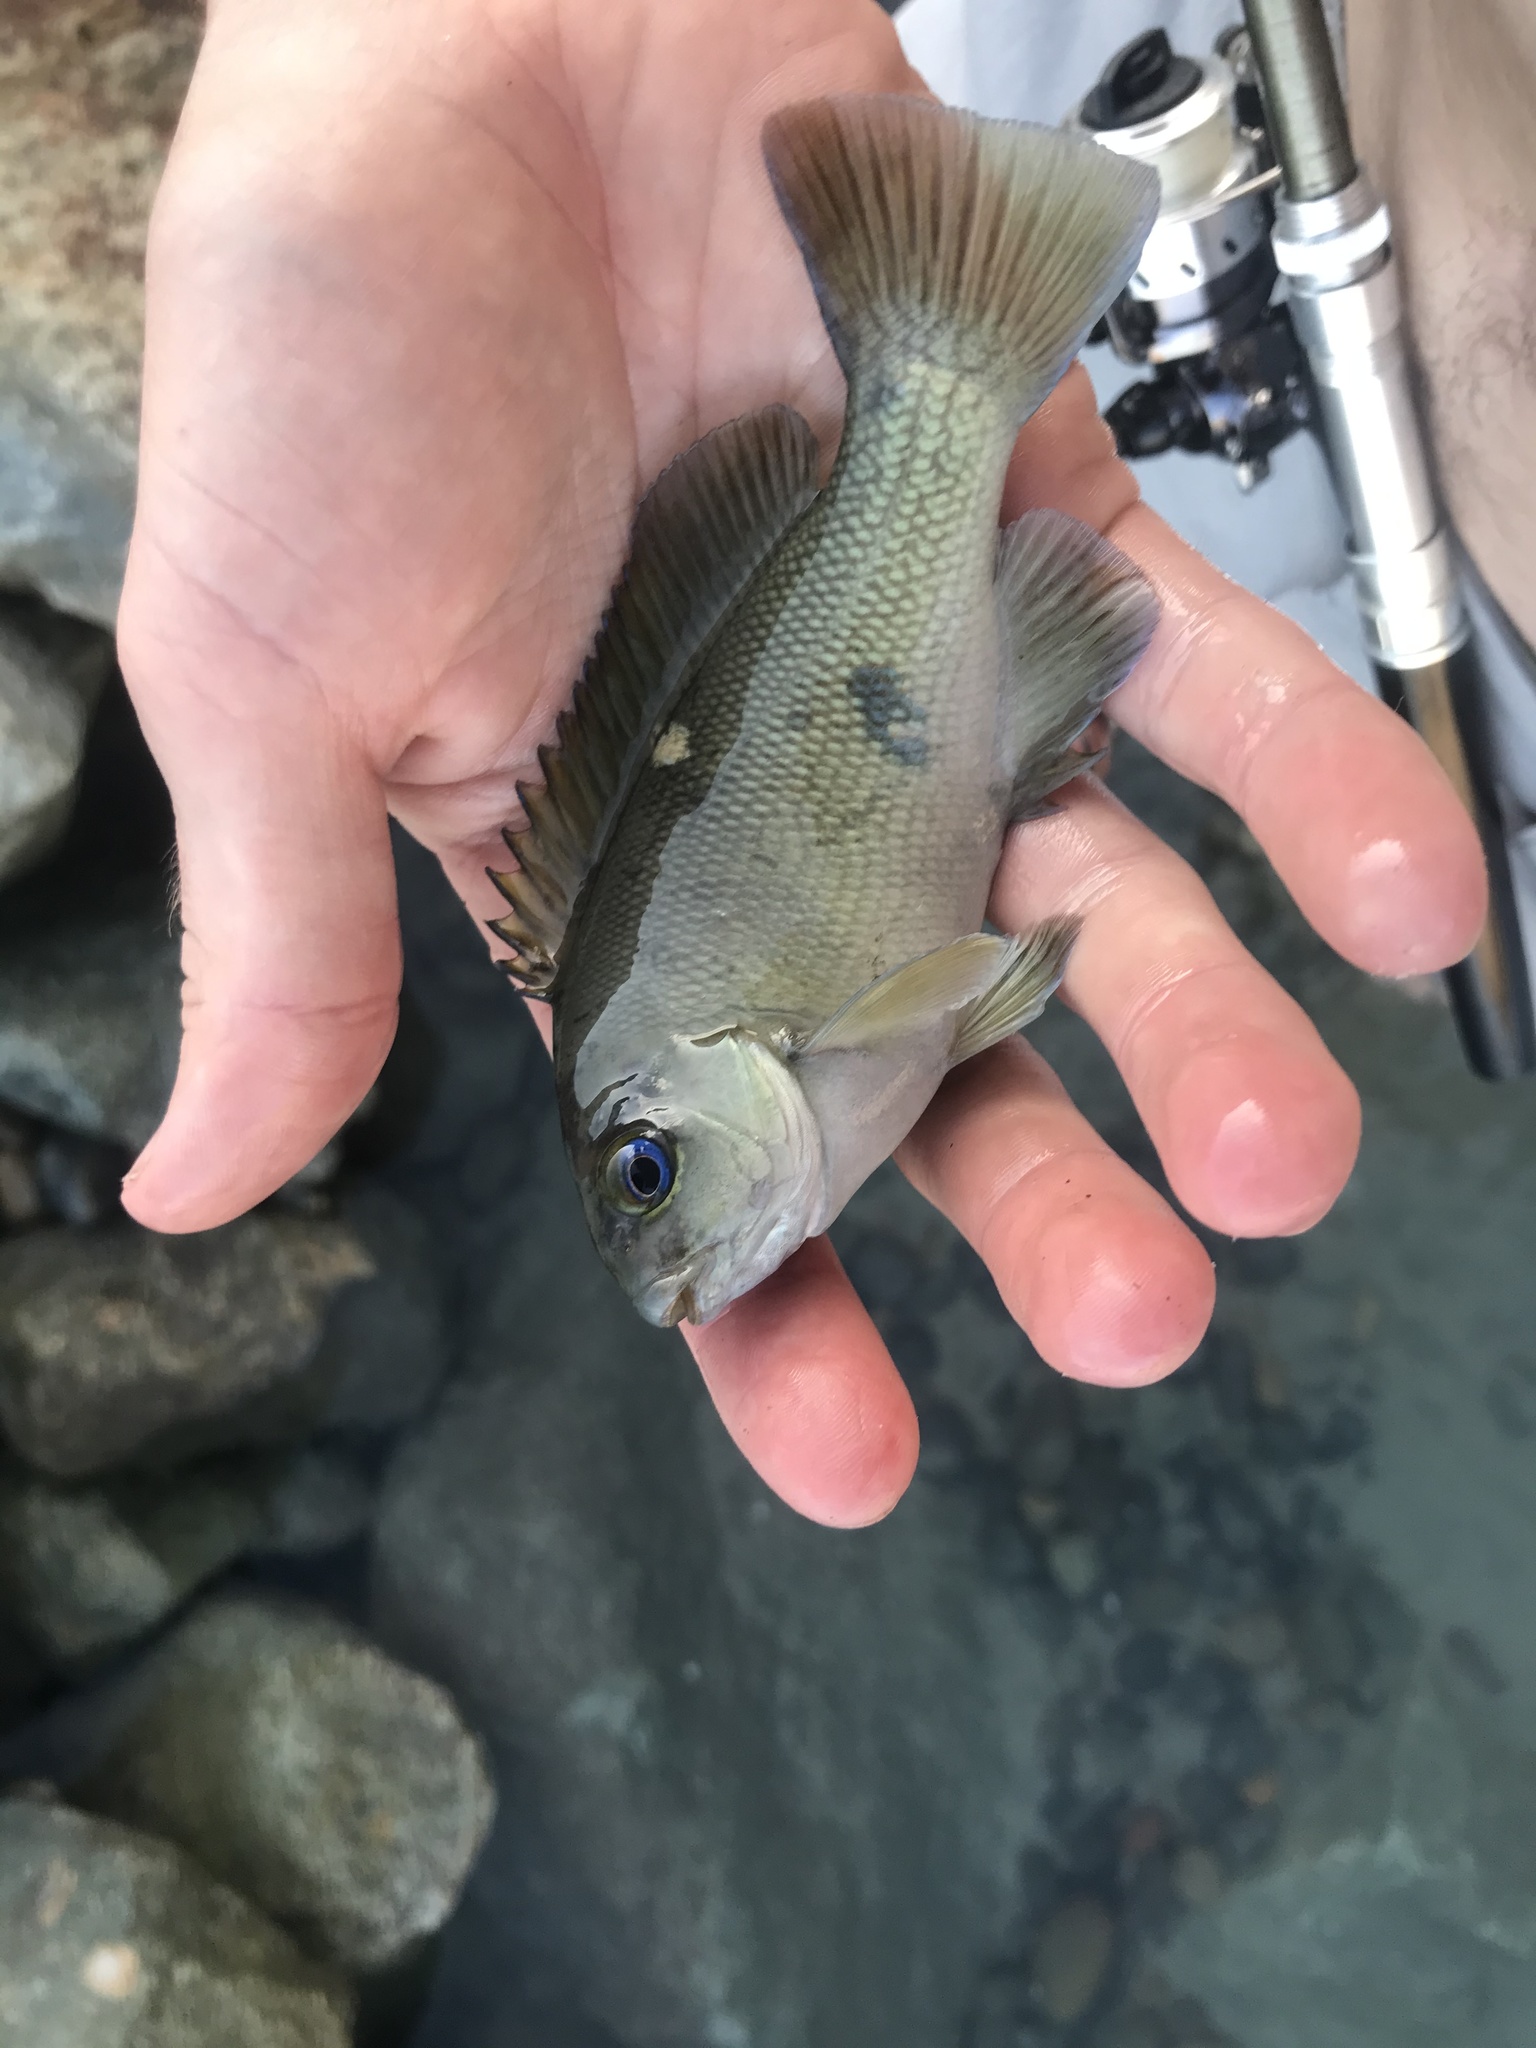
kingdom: Animalia
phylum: Chordata
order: Perciformes
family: Kyphosidae
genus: Girella
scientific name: Girella nigricans
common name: Opaleye
